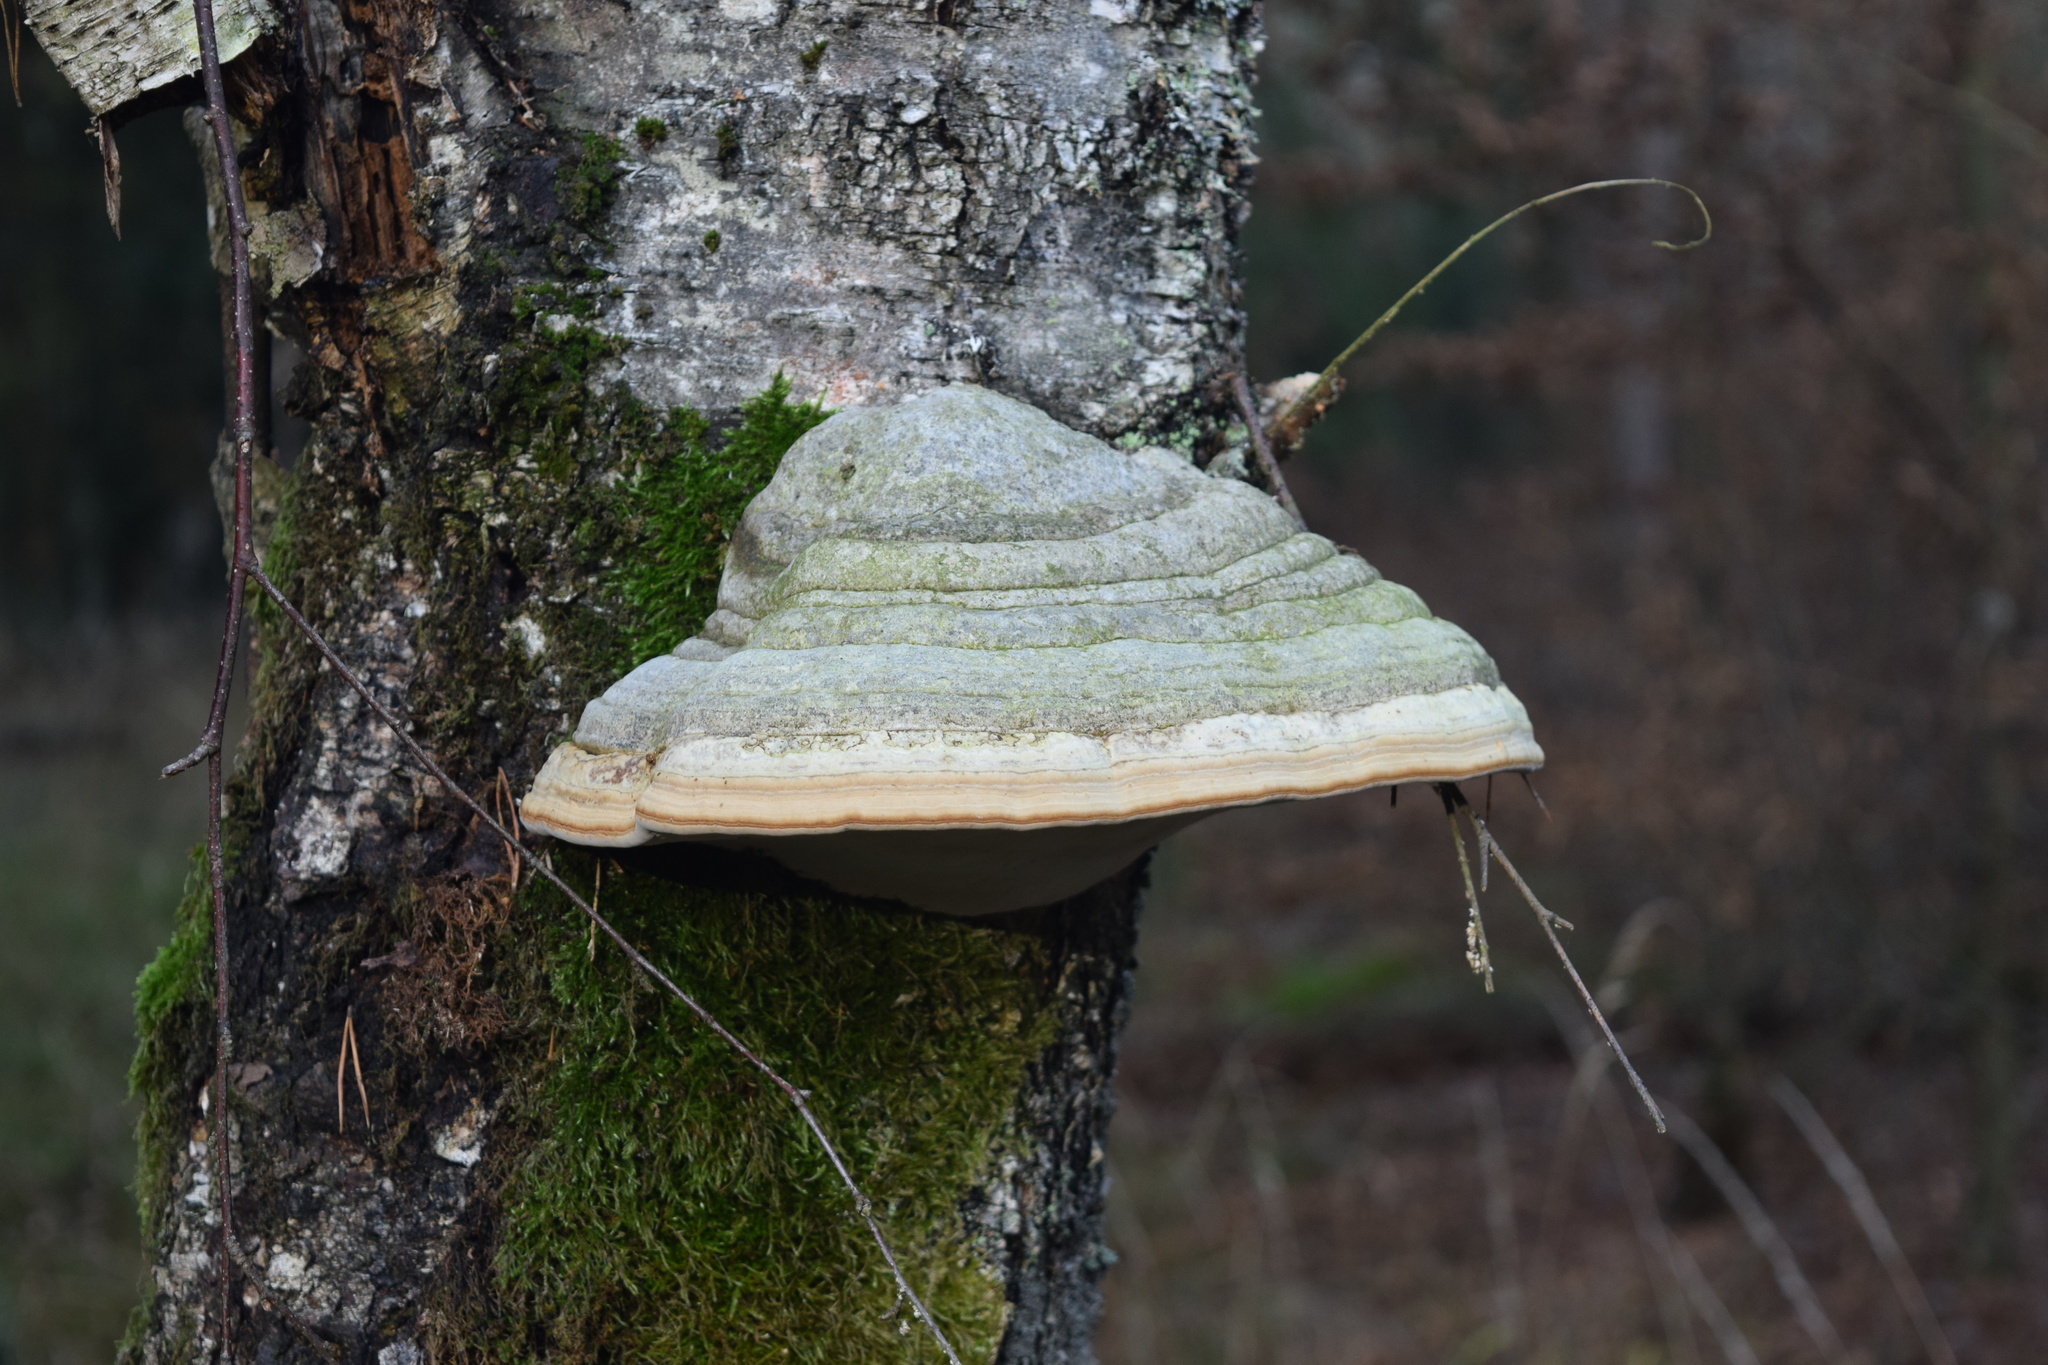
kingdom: Fungi
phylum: Basidiomycota
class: Agaricomycetes
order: Polyporales
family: Polyporaceae
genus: Fomes
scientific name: Fomes fomentarius
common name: Hoof fungus
